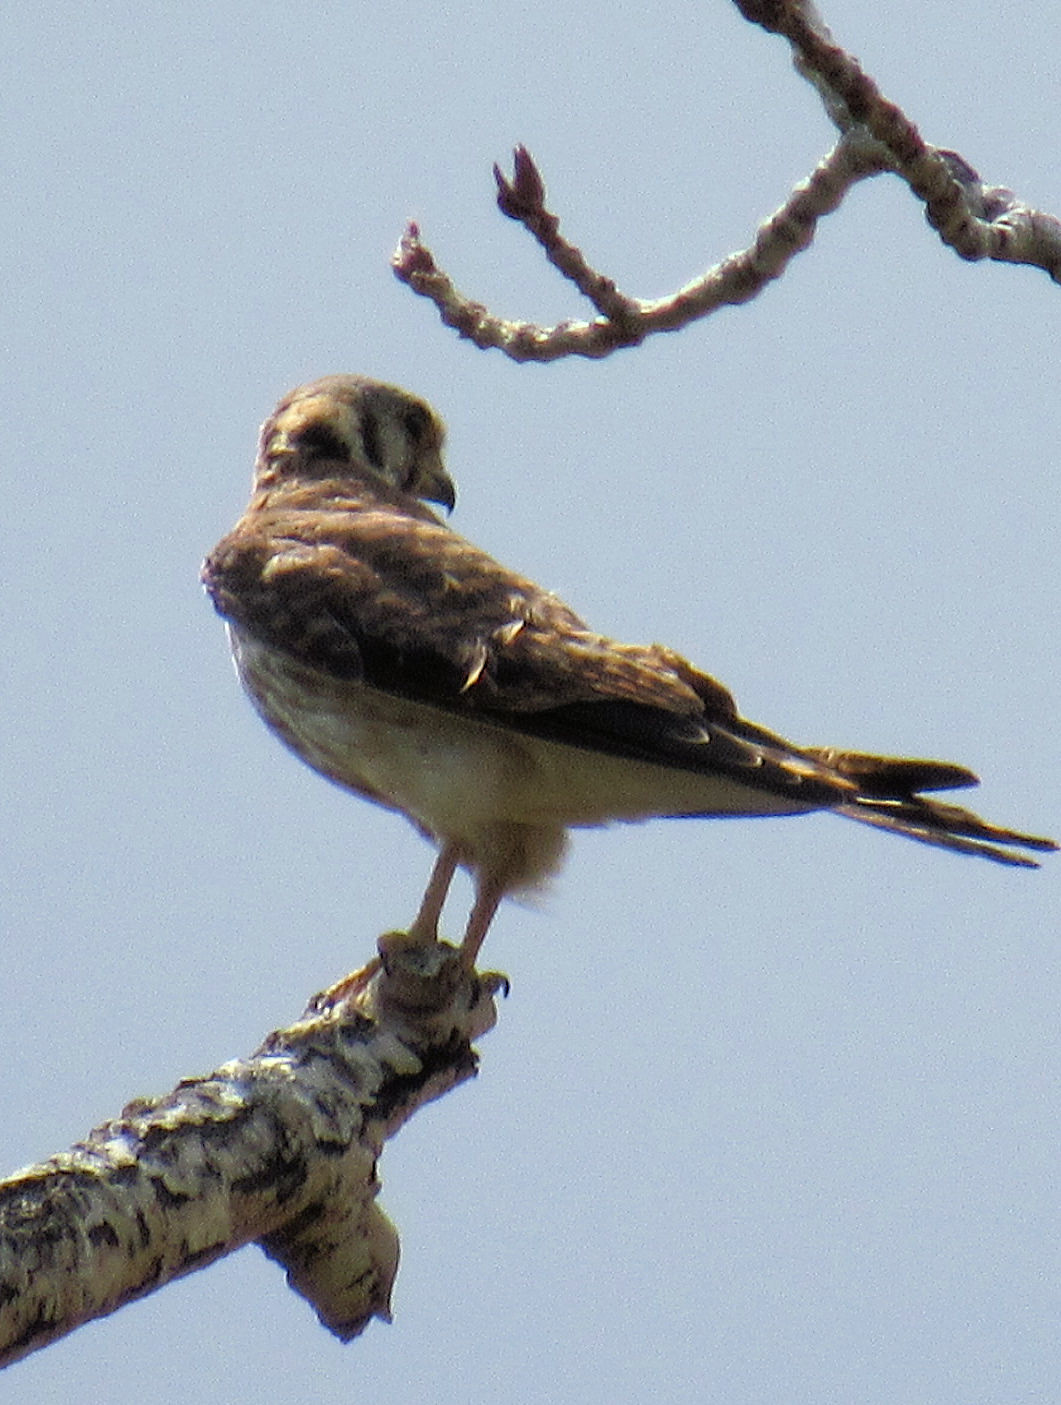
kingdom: Animalia
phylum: Chordata
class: Aves
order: Falconiformes
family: Falconidae
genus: Falco
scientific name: Falco sparverius
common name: American kestrel
